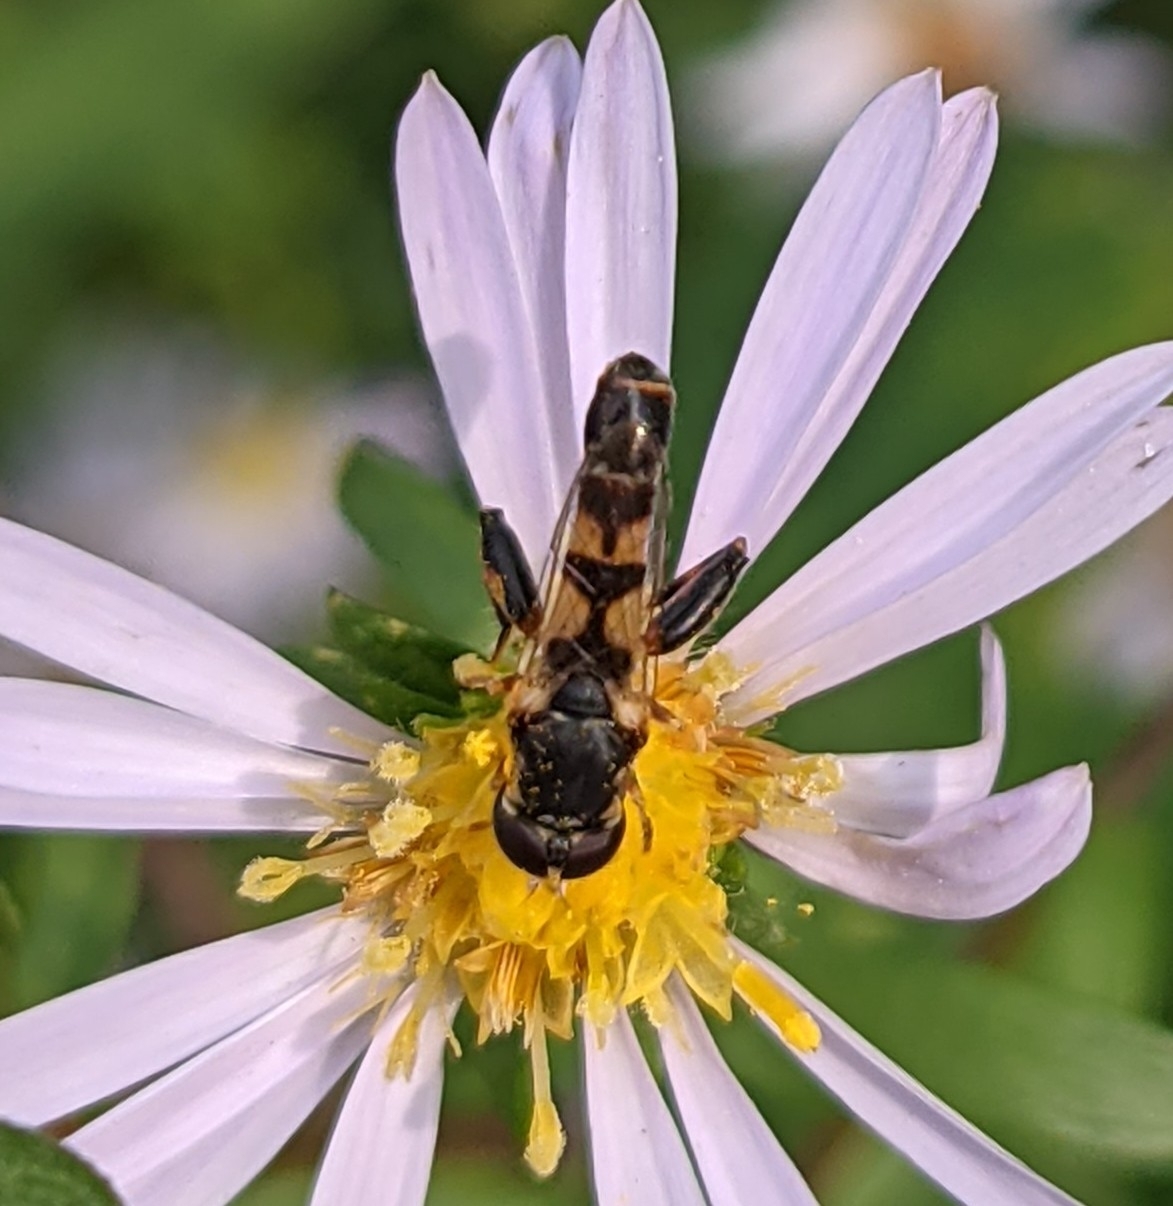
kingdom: Animalia
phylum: Arthropoda
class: Insecta
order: Diptera
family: Syrphidae
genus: Syritta
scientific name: Syritta pipiens
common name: Hover fly
